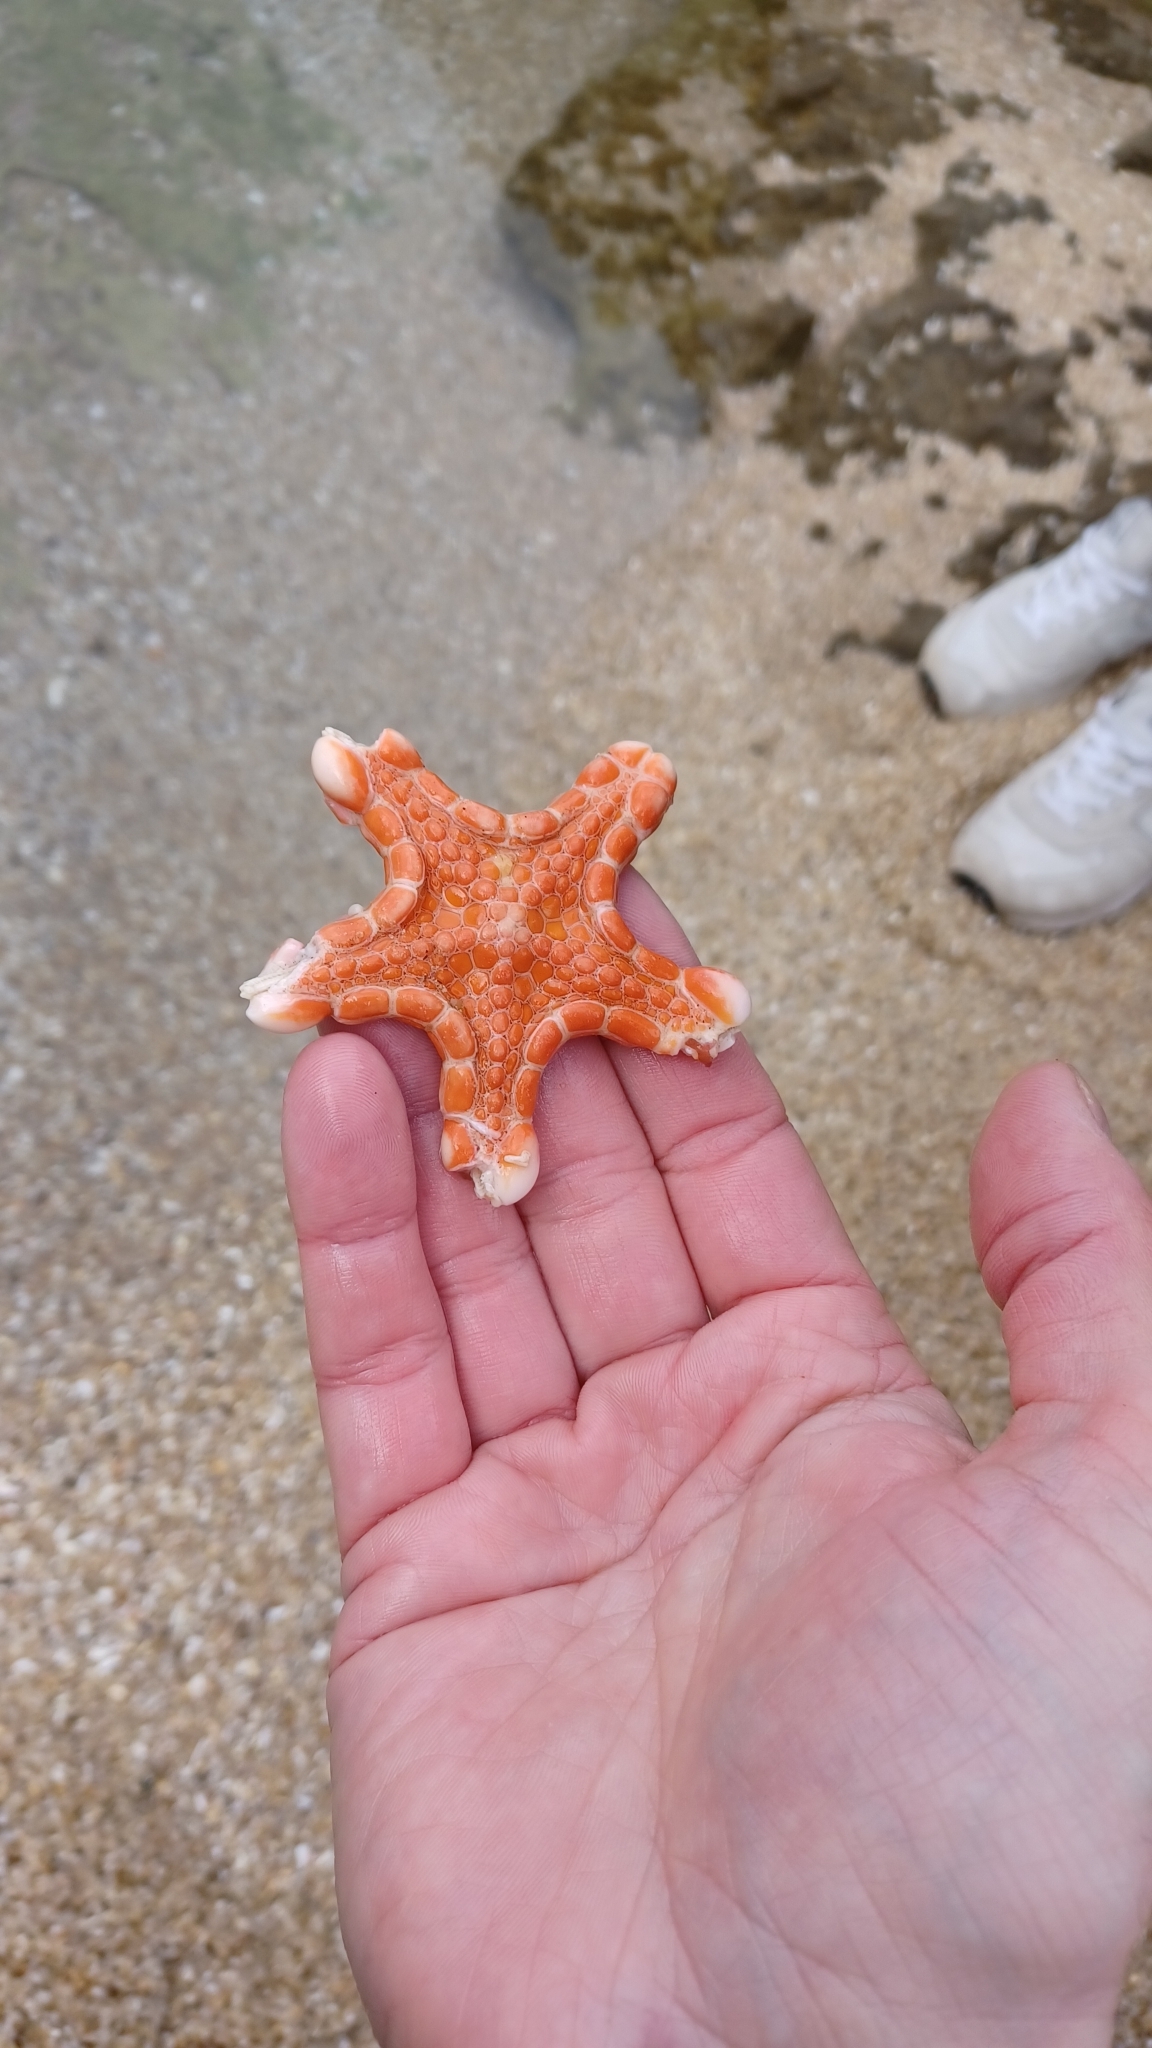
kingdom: Animalia
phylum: Echinodermata
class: Asteroidea
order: Valvatida
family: Goniasteridae
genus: Pentagonaster
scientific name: Pentagonaster duebeni
